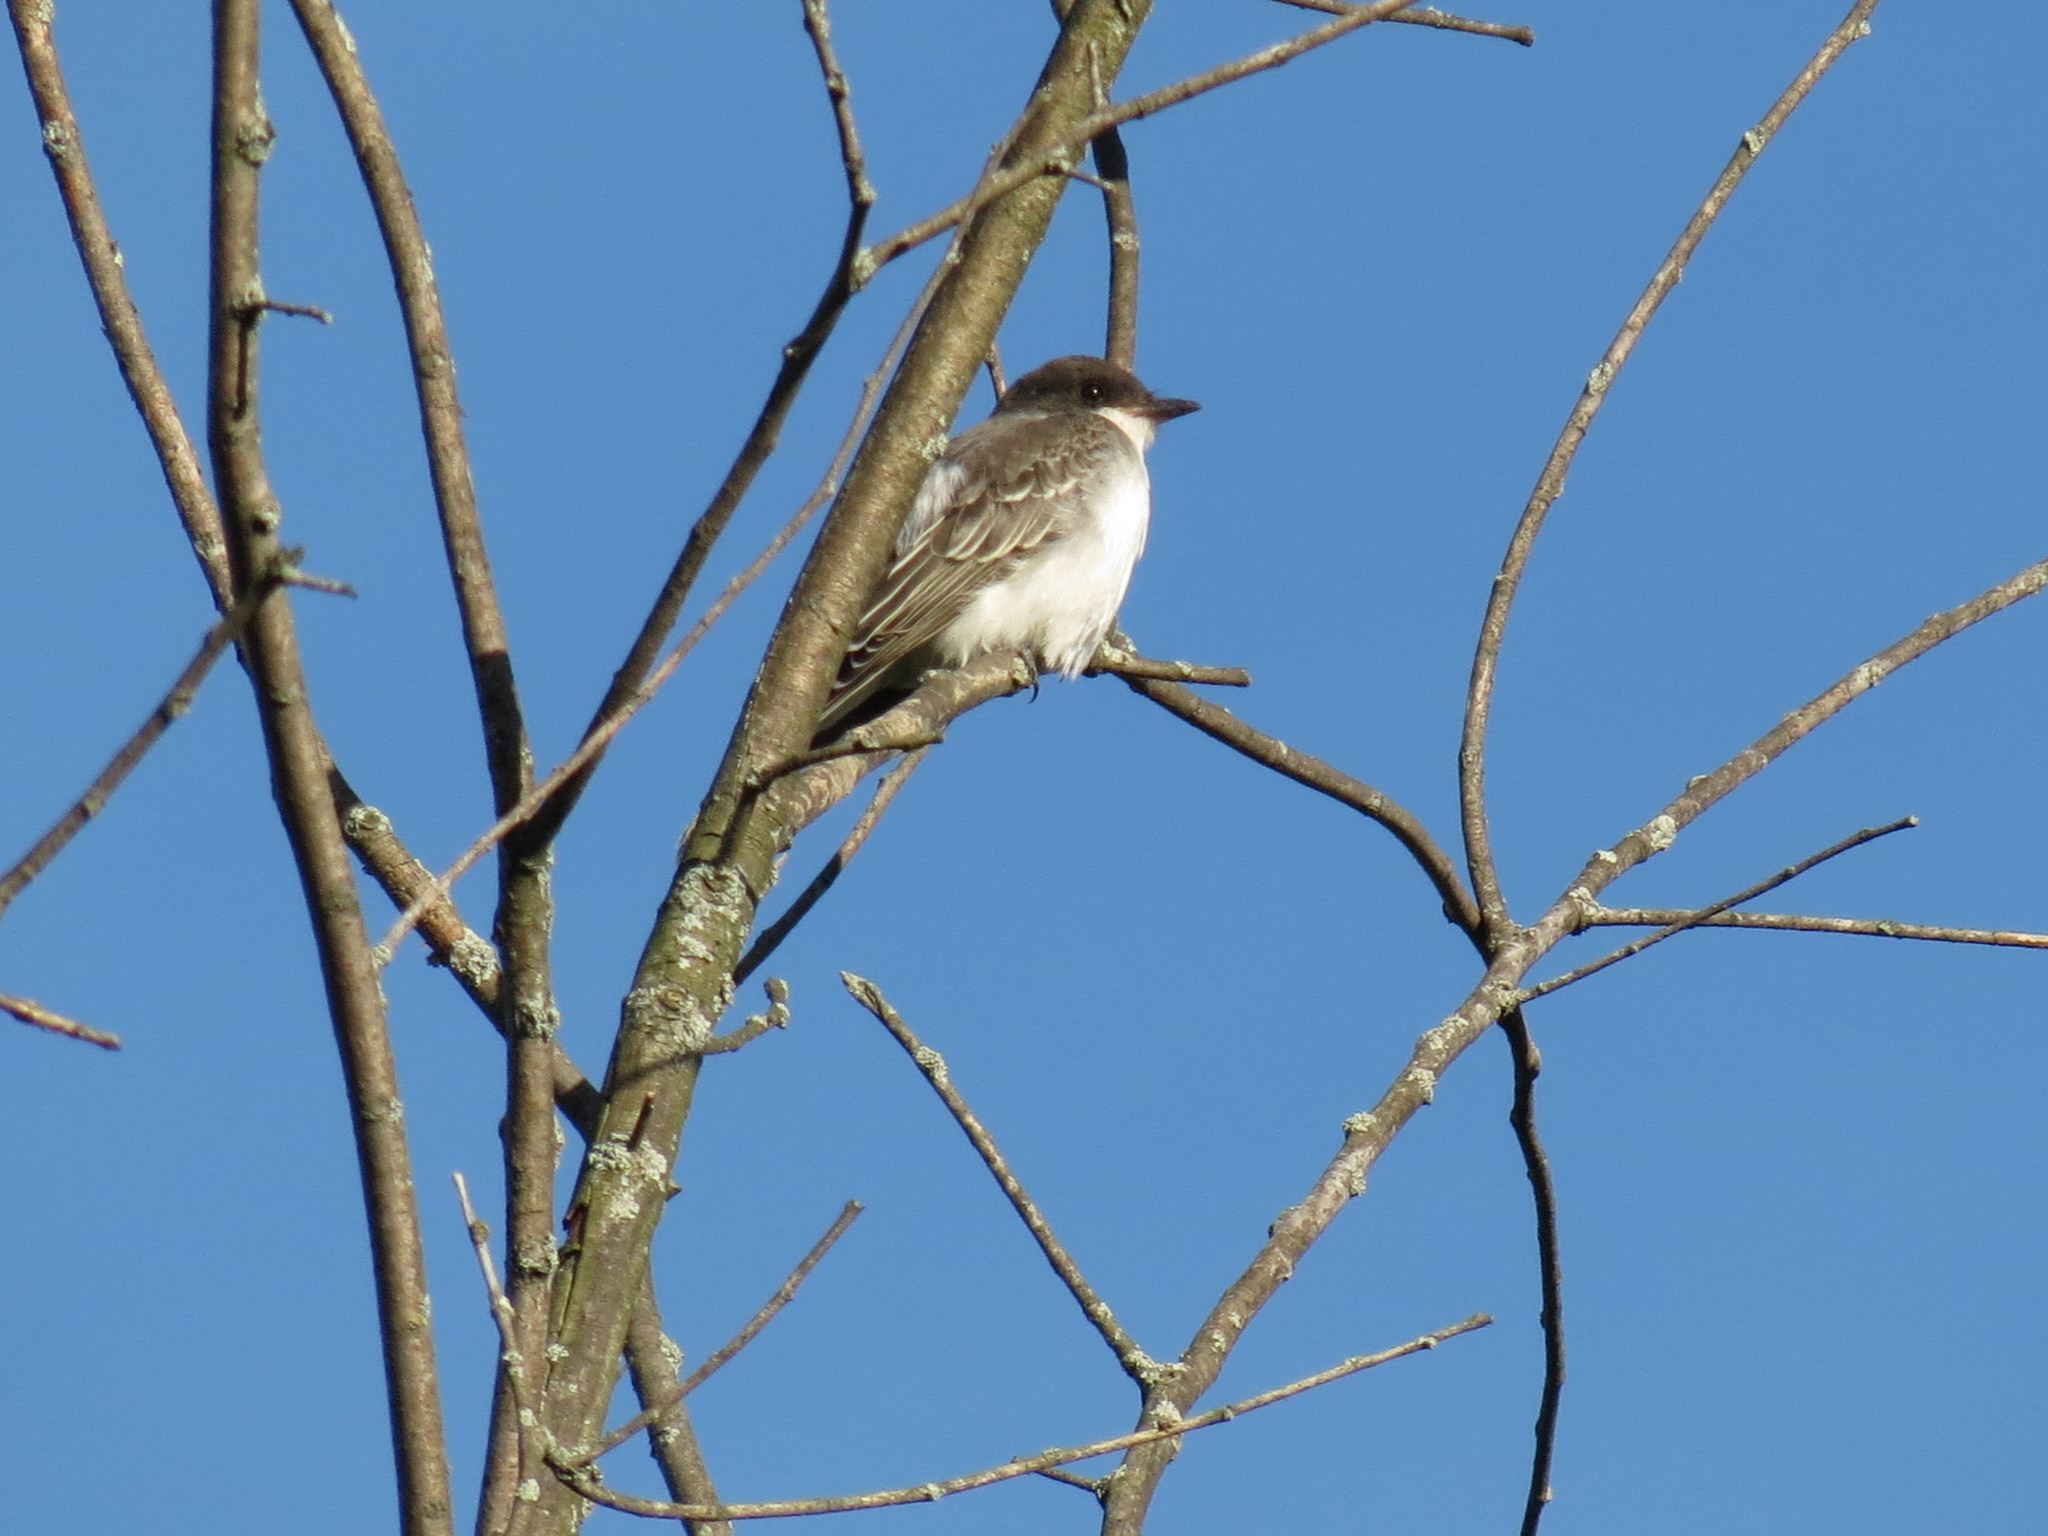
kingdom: Animalia
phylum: Chordata
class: Aves
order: Passeriformes
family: Tyrannidae
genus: Tyrannus
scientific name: Tyrannus tyrannus
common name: Eastern kingbird
